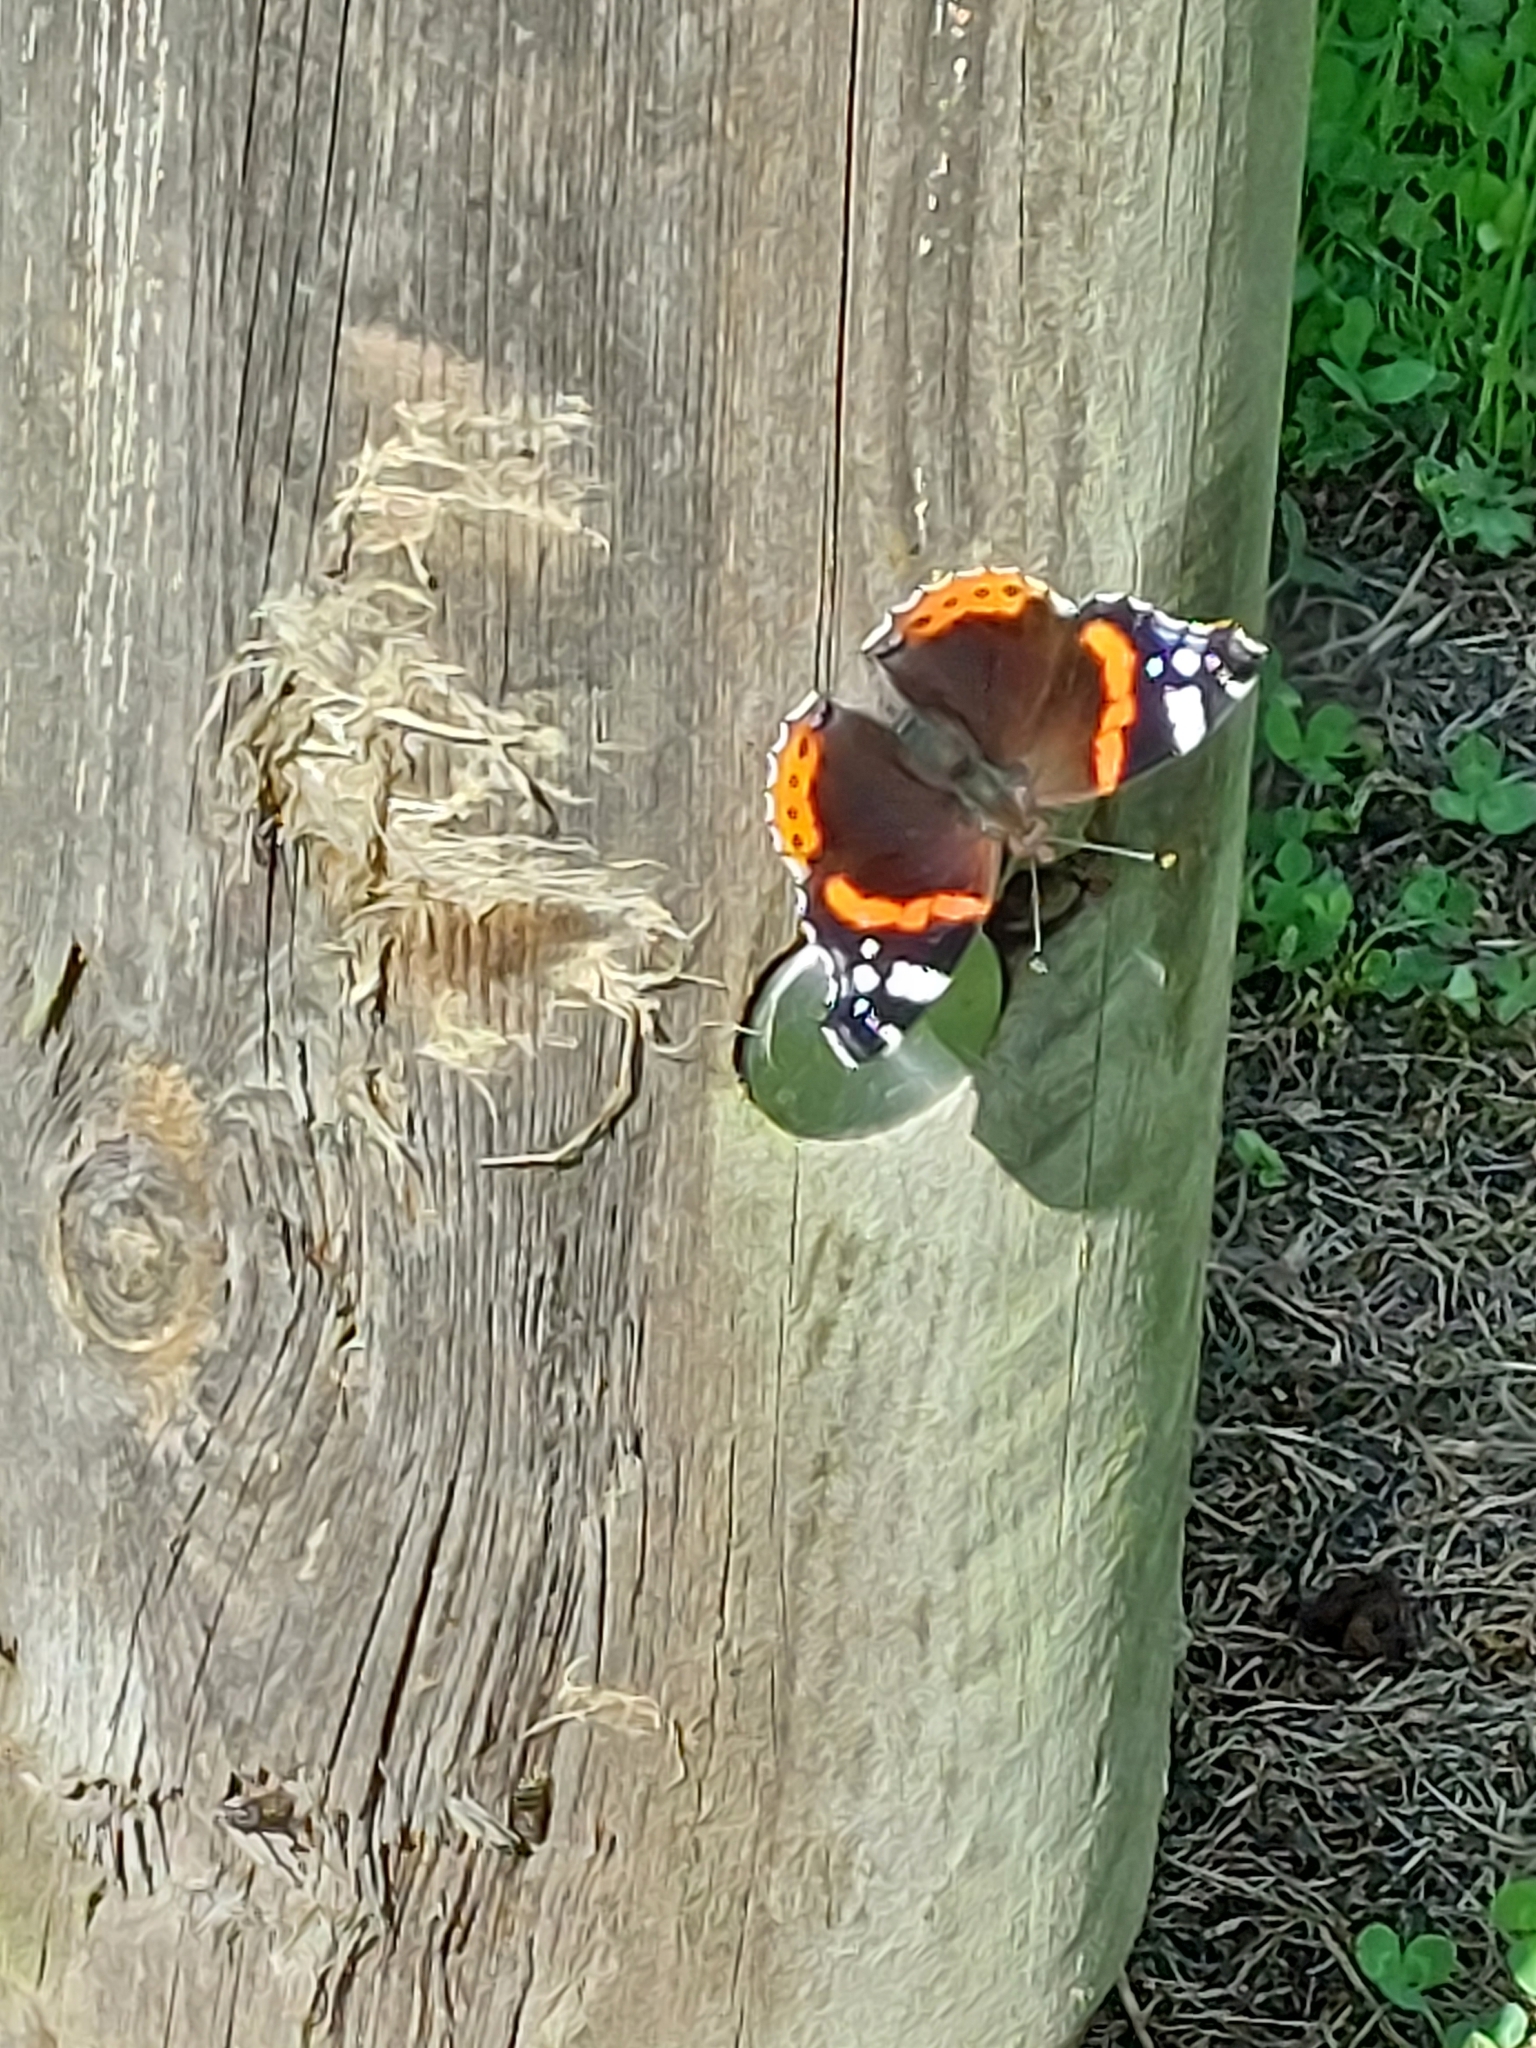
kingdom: Animalia
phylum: Arthropoda
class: Insecta
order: Lepidoptera
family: Nymphalidae
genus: Vanessa
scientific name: Vanessa atalanta
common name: Red admiral
